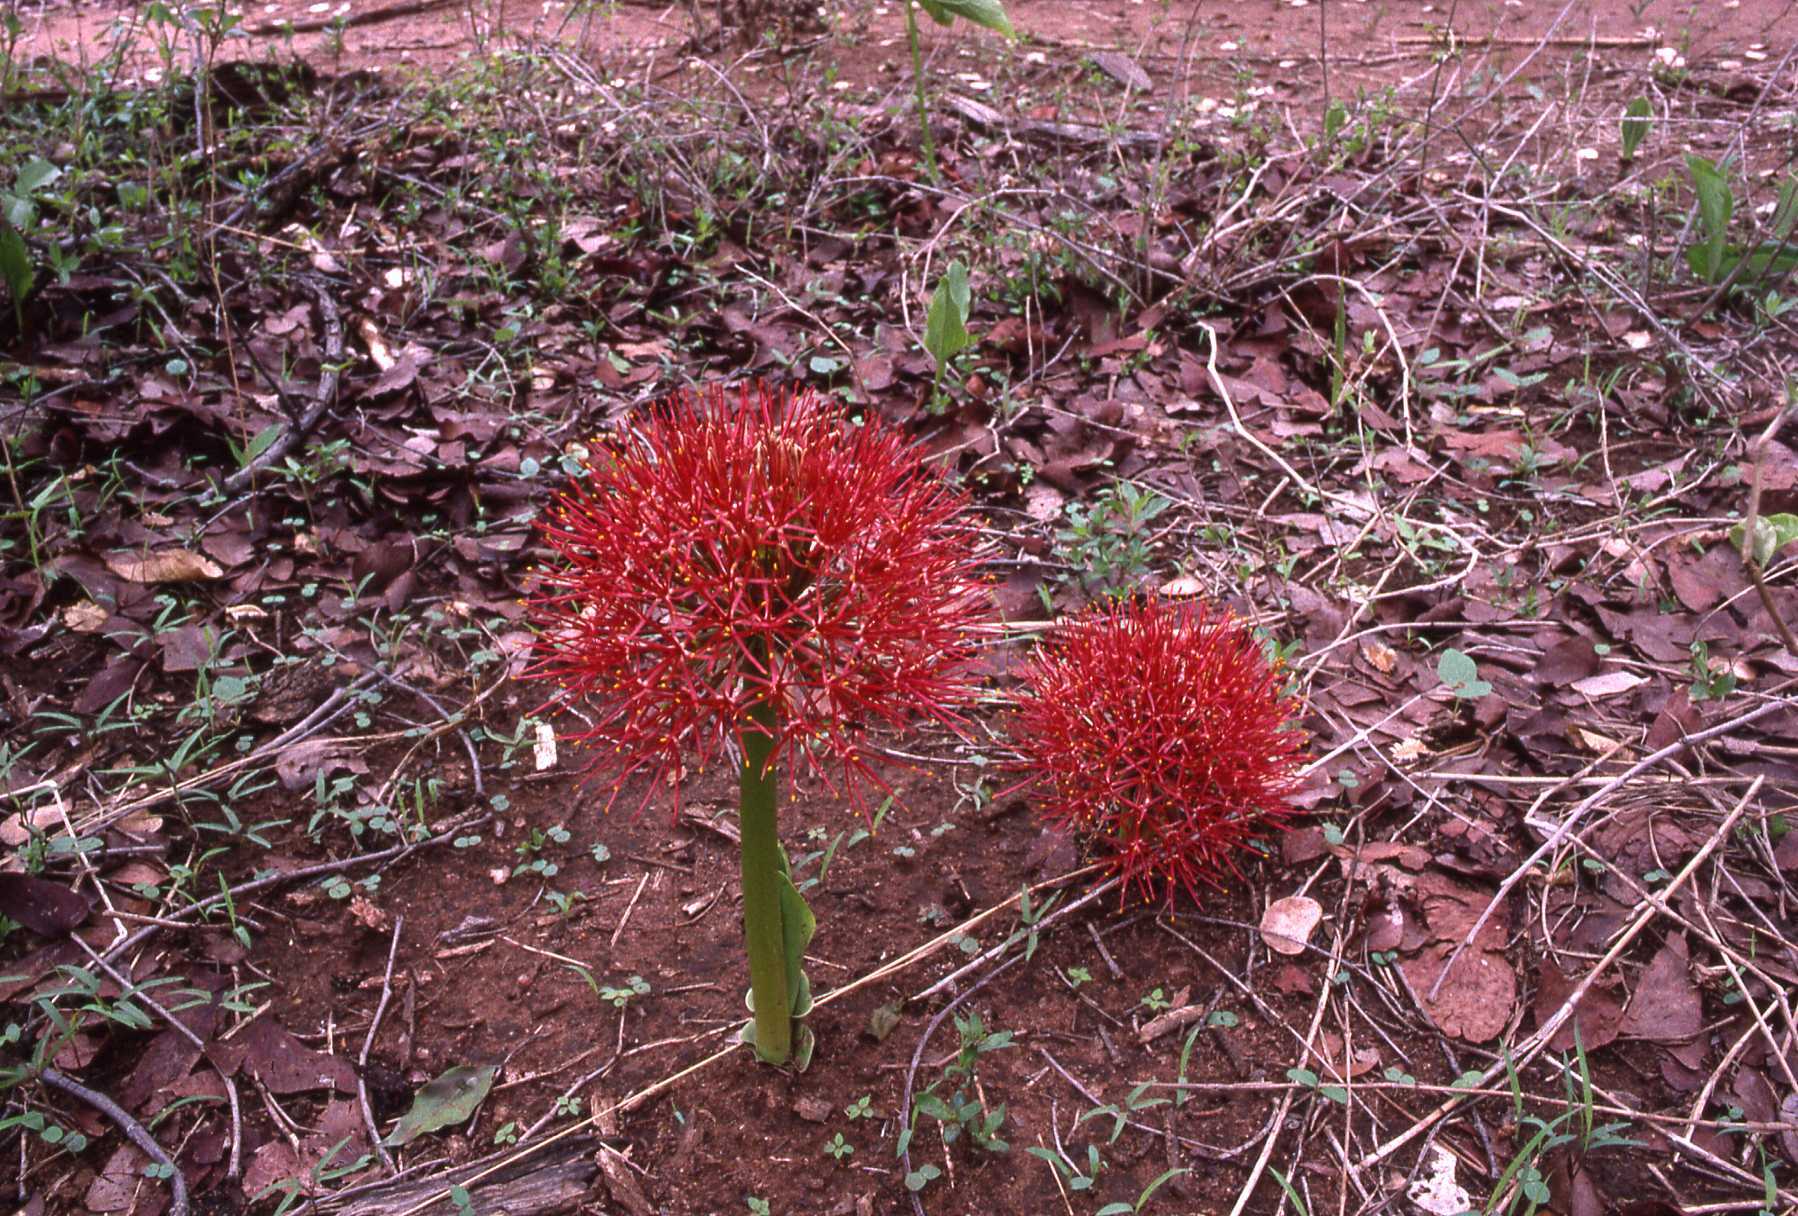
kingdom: Plantae
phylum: Tracheophyta
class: Liliopsida
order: Asparagales
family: Amaryllidaceae
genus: Scadoxus
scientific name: Scadoxus multiflorus
